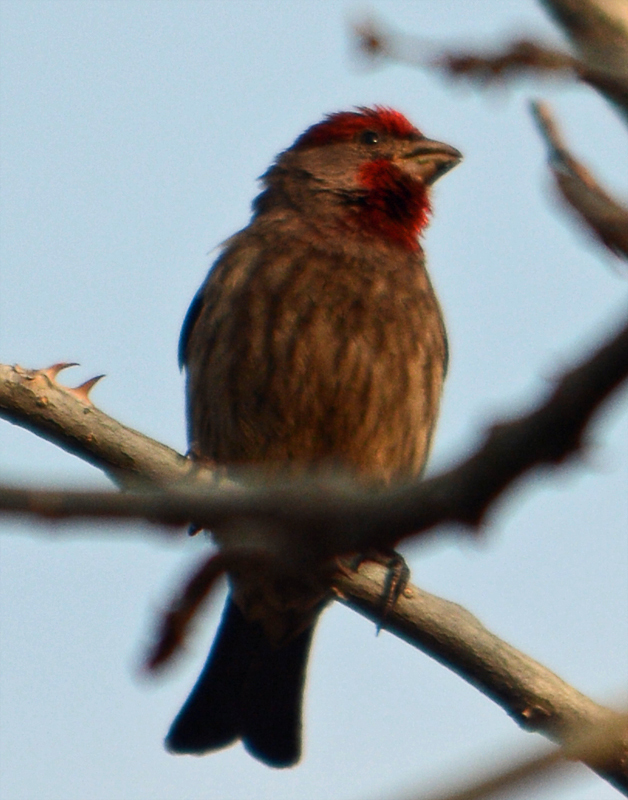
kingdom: Animalia
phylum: Chordata
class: Aves
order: Passeriformes
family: Fringillidae
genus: Haemorhous
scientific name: Haemorhous mexicanus
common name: House finch
